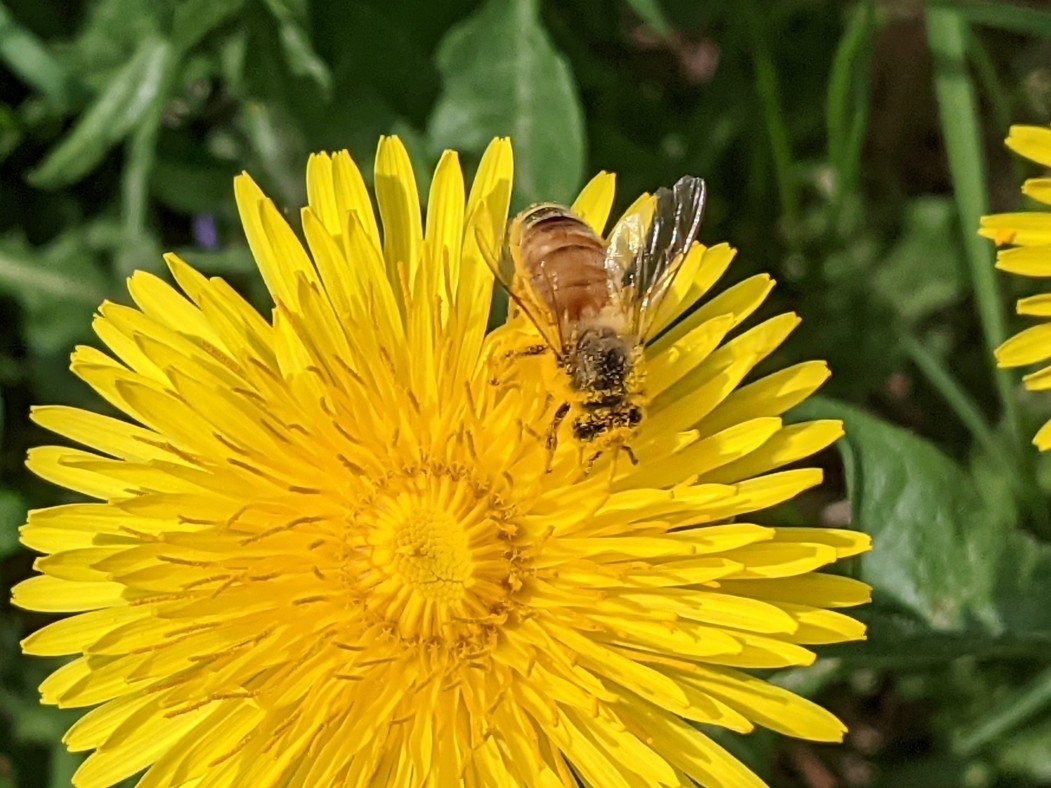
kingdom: Animalia
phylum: Arthropoda
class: Insecta
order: Hymenoptera
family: Apidae
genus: Apis
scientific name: Apis mellifera
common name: Honey bee
